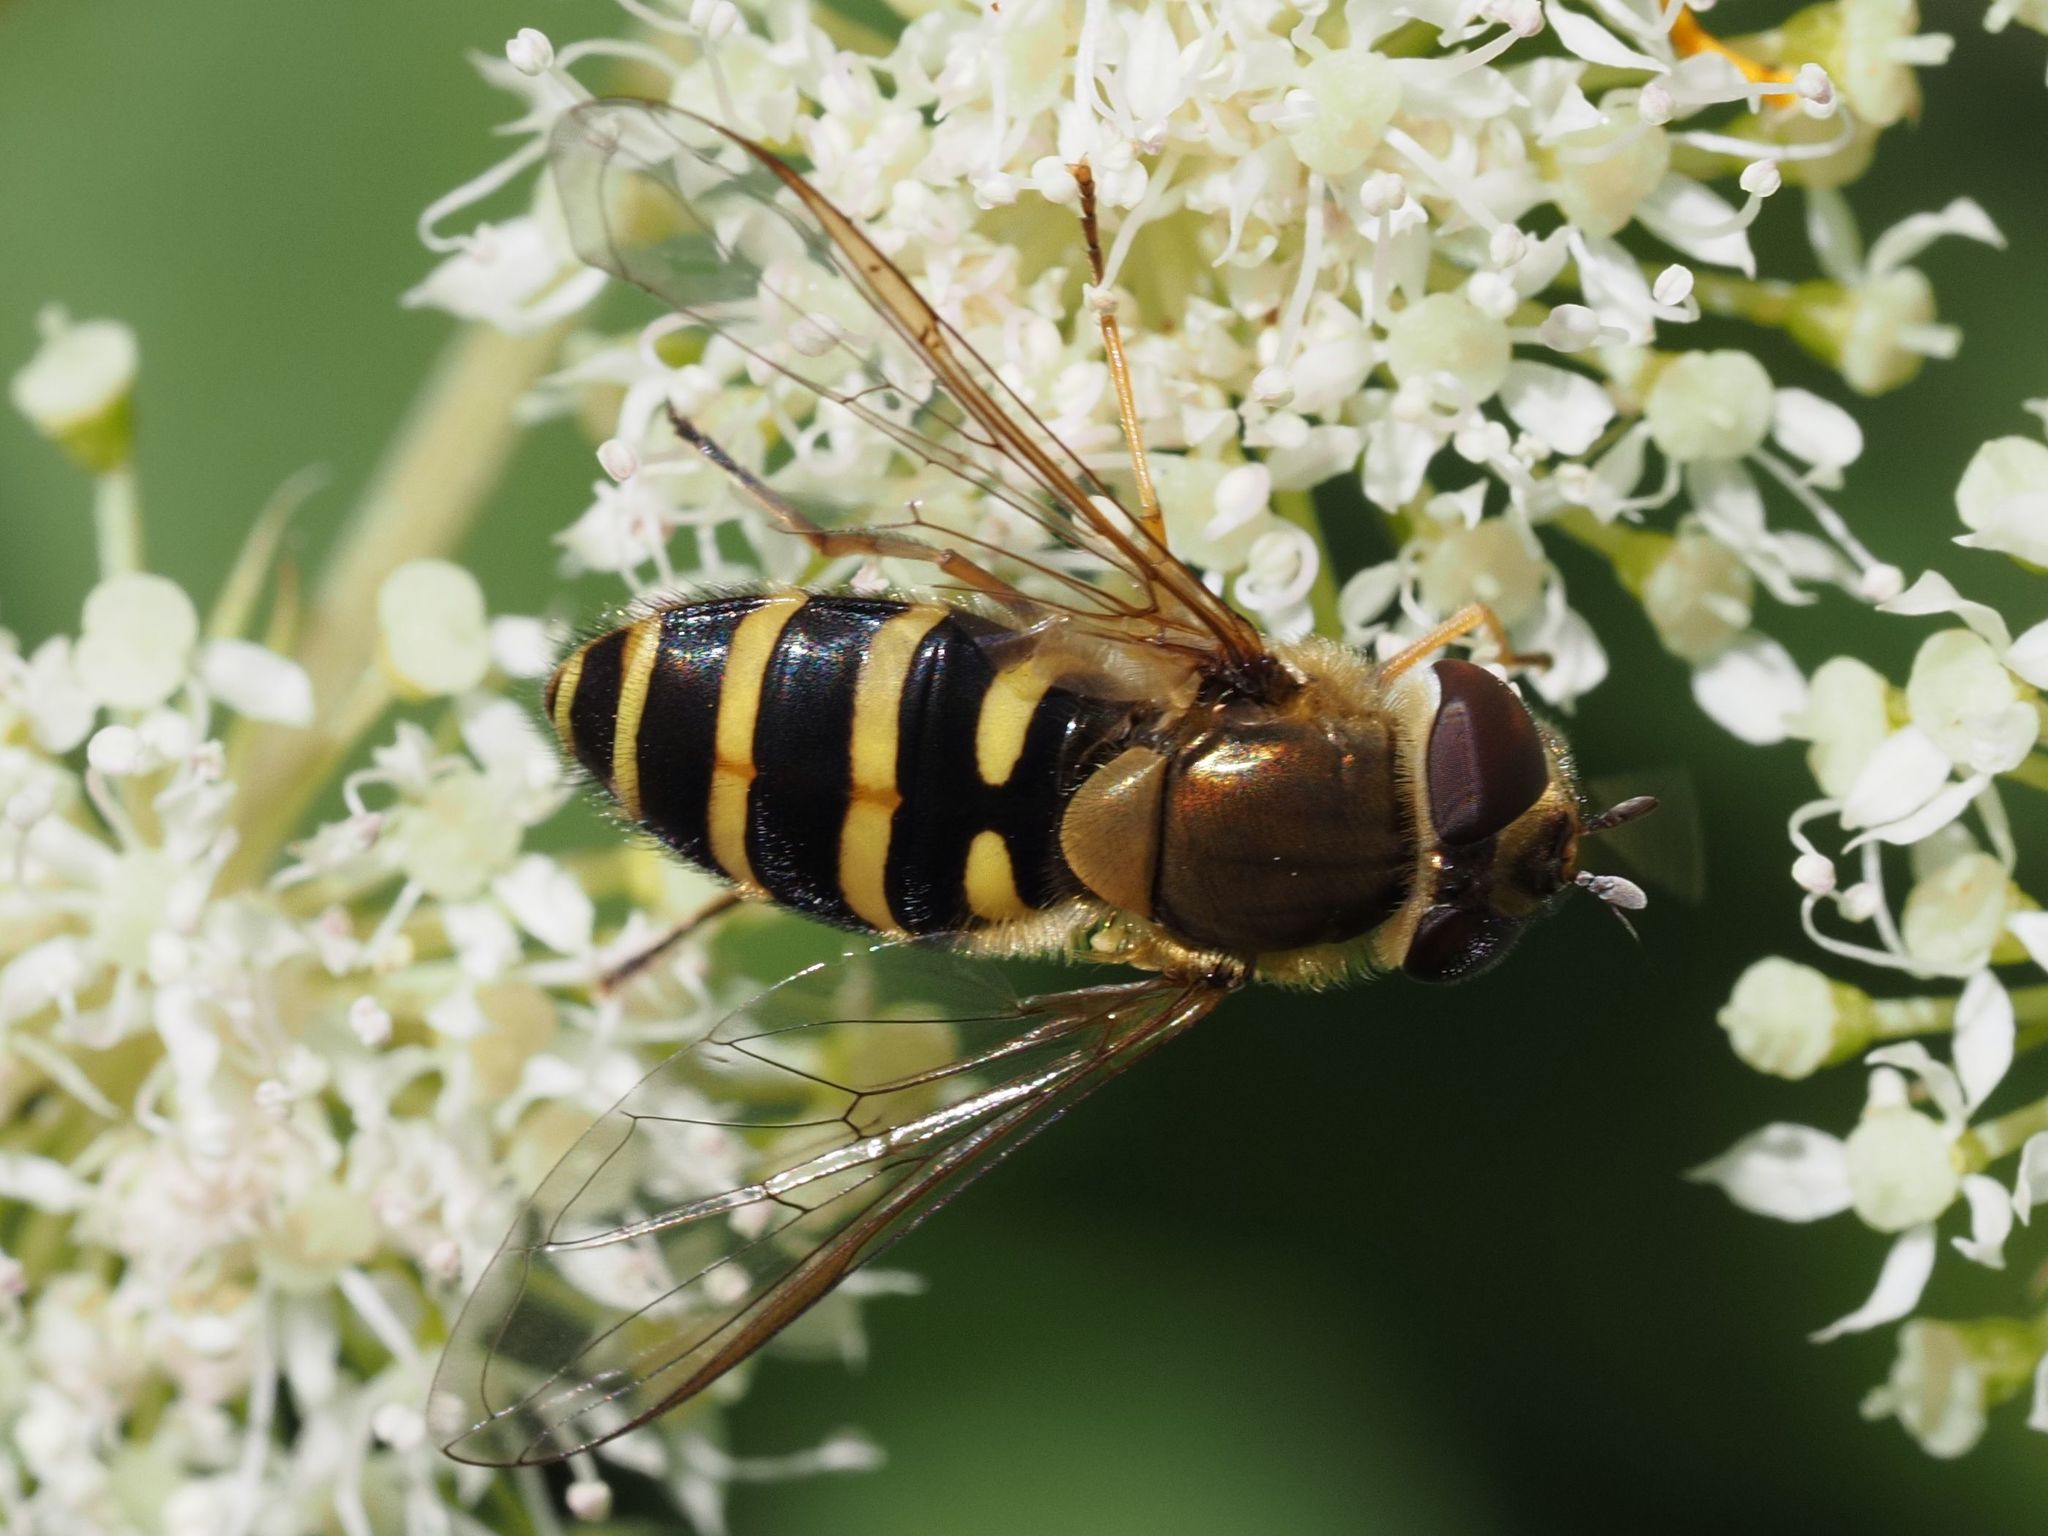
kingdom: Animalia
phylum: Arthropoda
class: Insecta
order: Diptera
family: Syrphidae
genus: Syrphus
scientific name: Syrphus torvus
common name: Hairy-eyed flower fly
